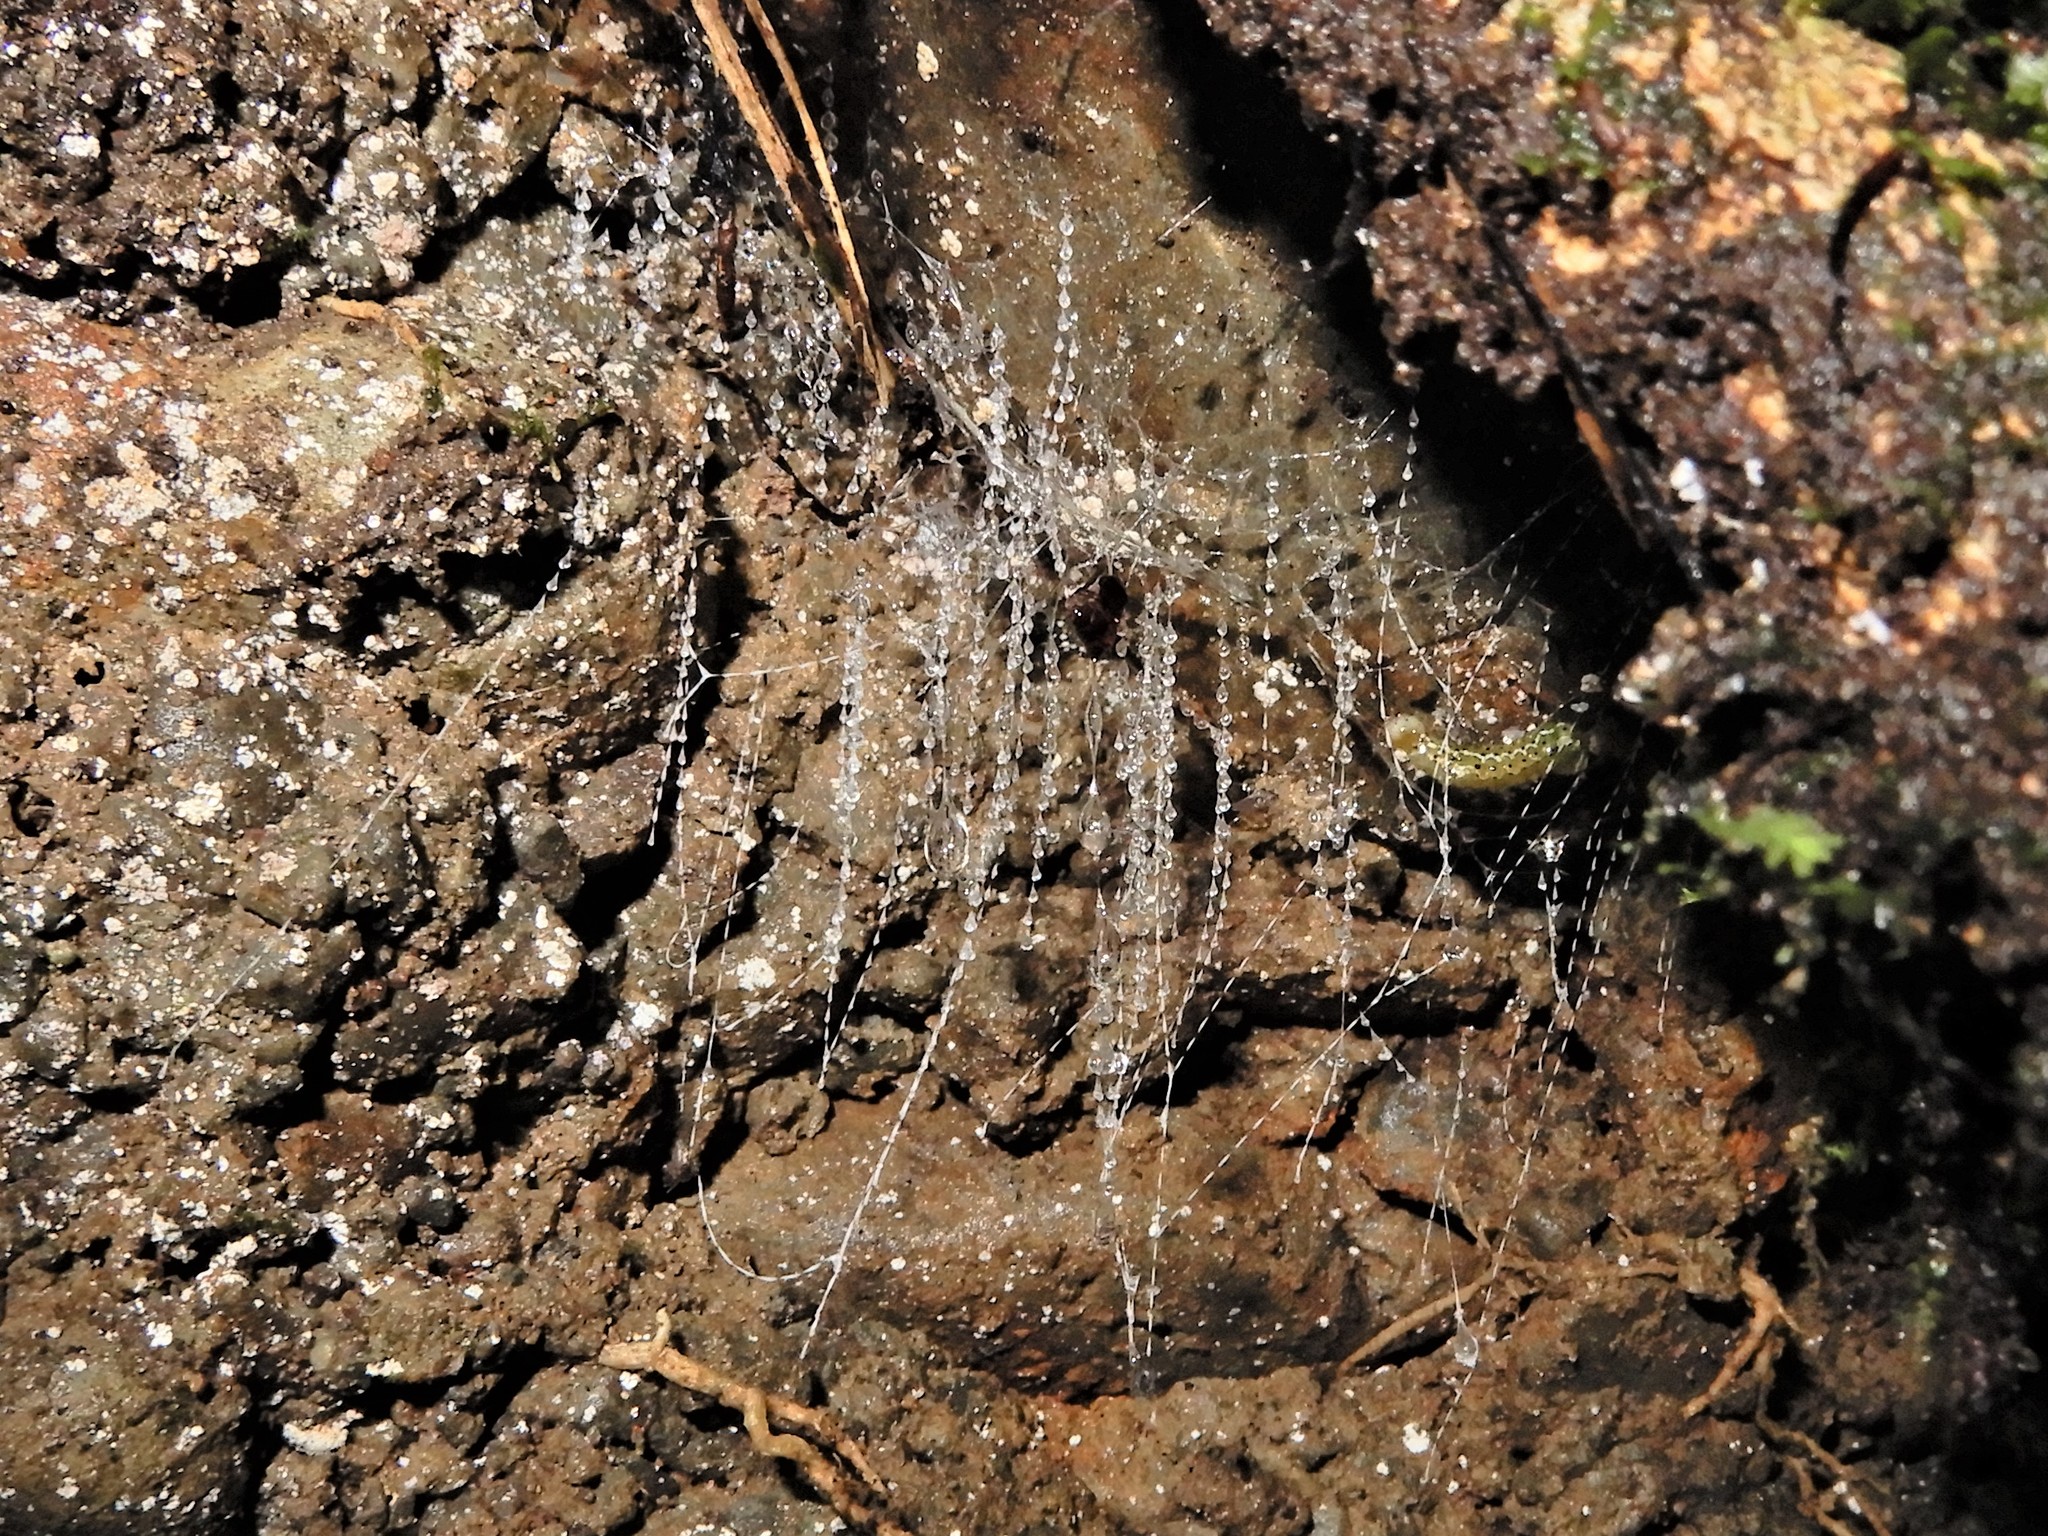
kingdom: Animalia
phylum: Arthropoda
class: Insecta
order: Diptera
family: Keroplatidae
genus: Arachnocampa
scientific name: Arachnocampa luminosa
